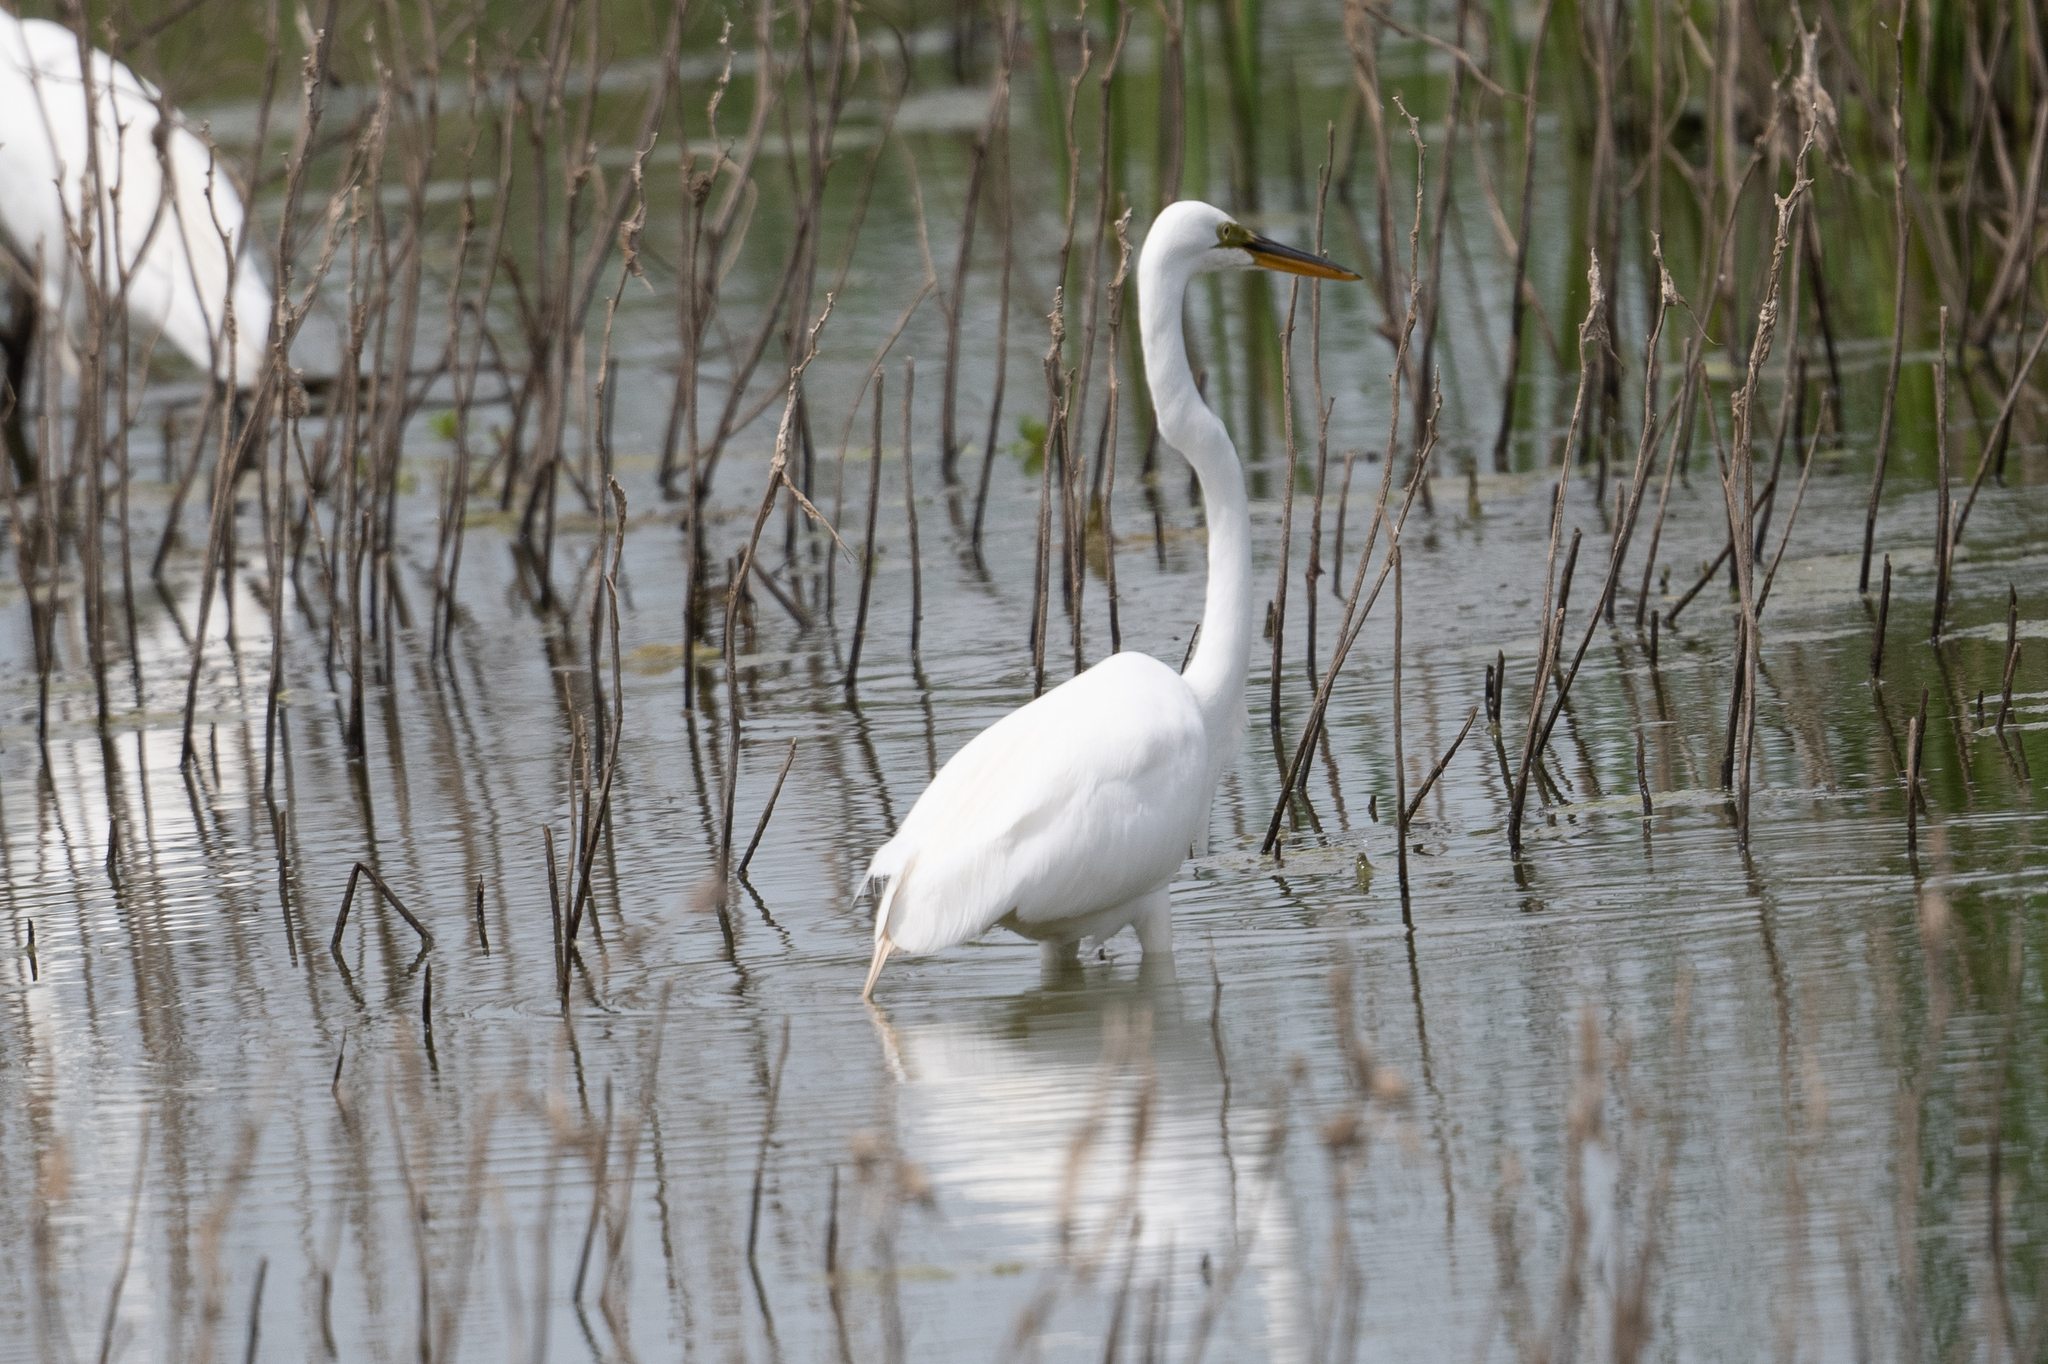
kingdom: Animalia
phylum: Chordata
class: Aves
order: Pelecaniformes
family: Ardeidae
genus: Ardea
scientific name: Ardea alba
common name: Great egret
